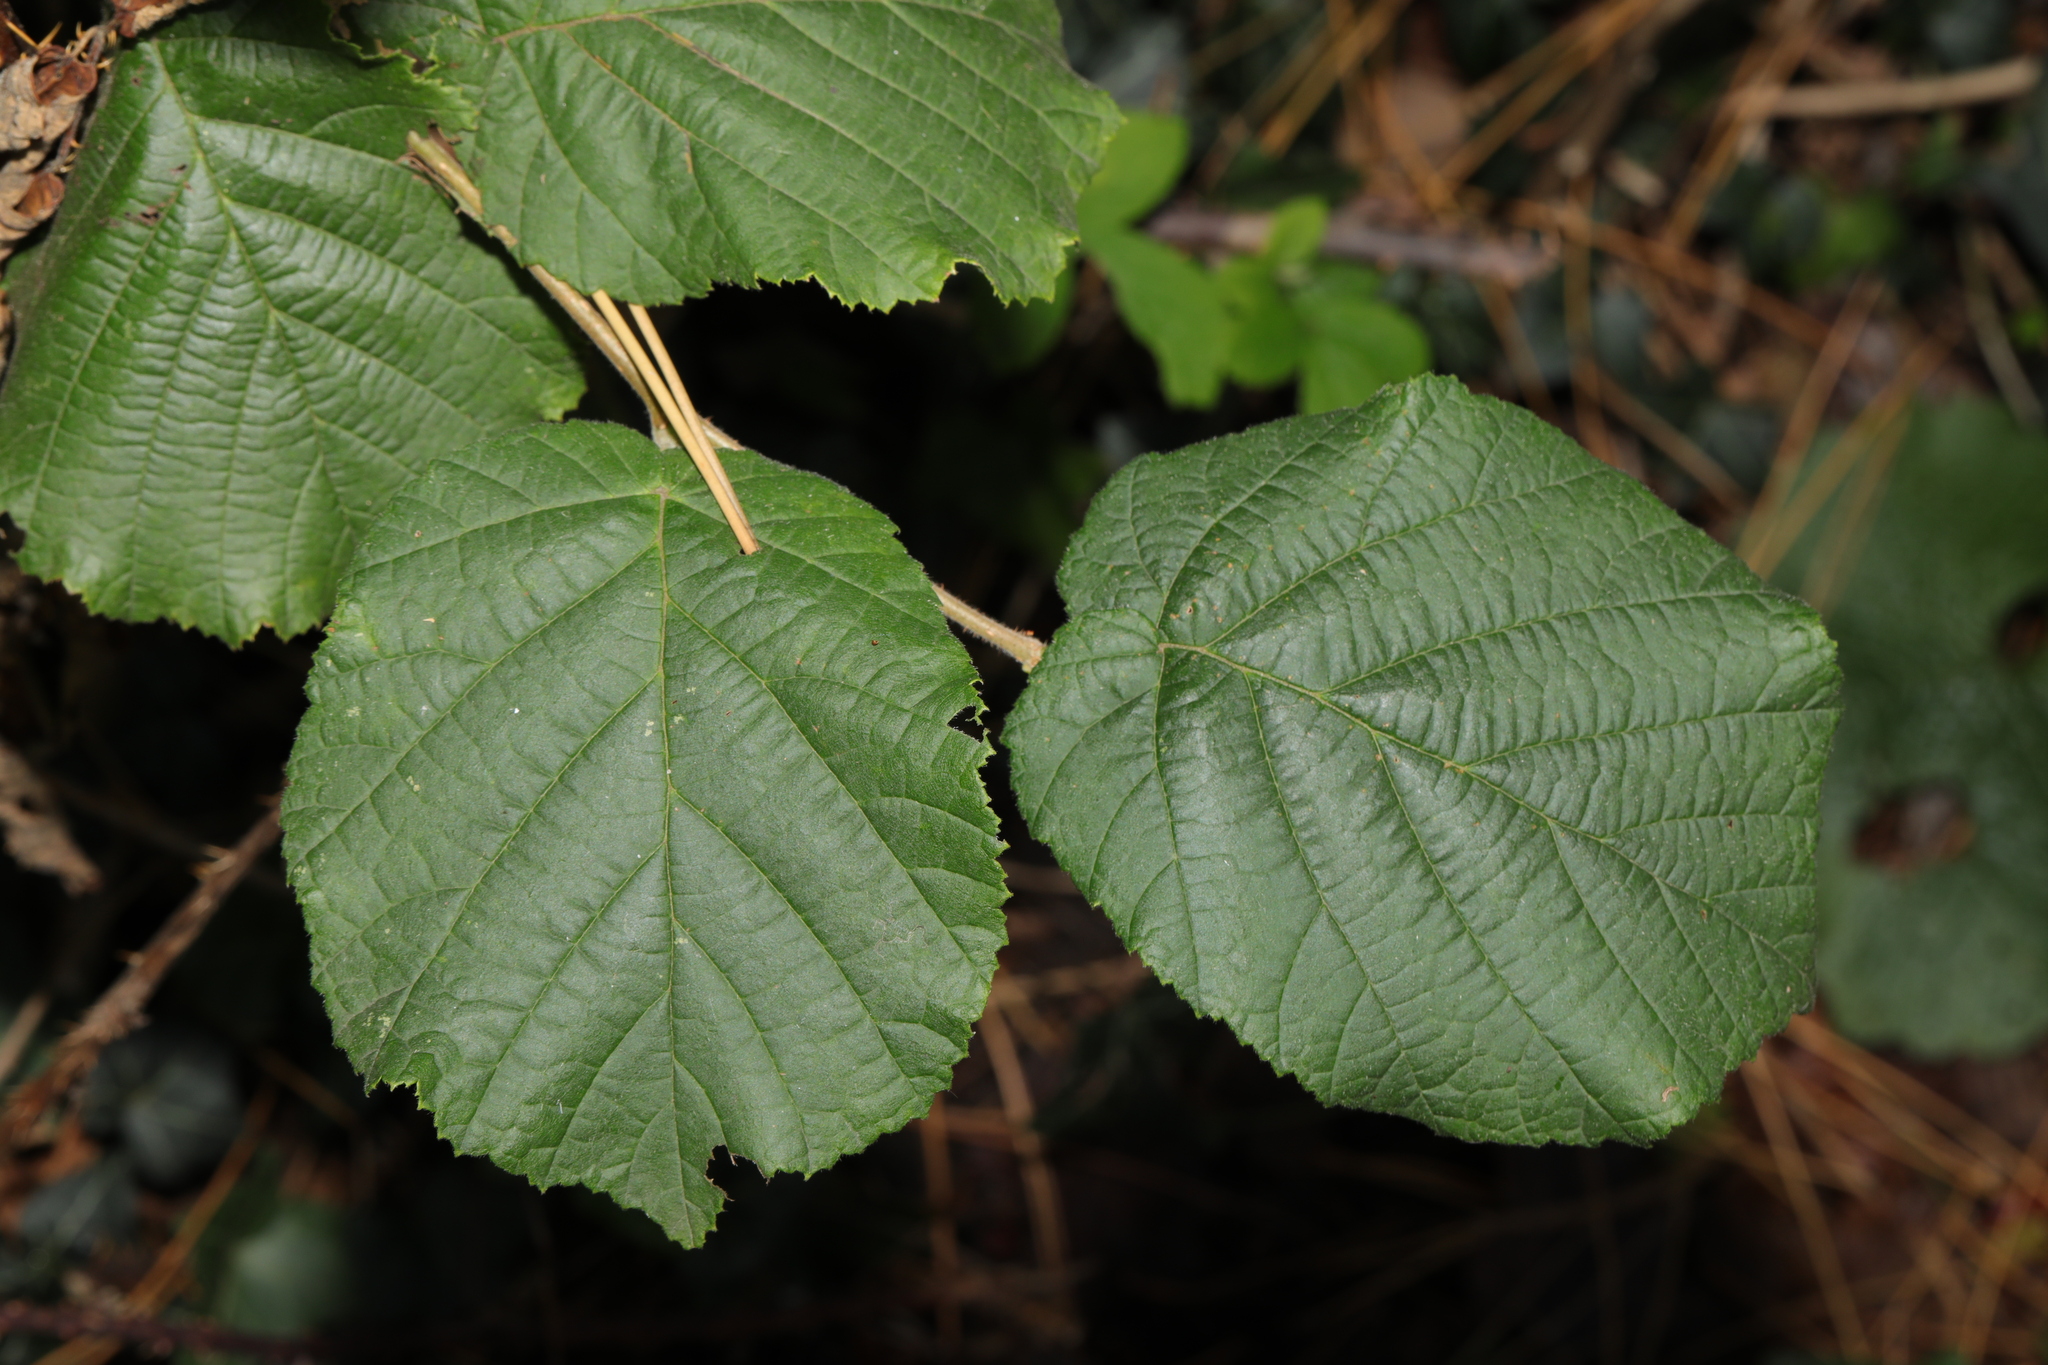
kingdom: Plantae
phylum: Tracheophyta
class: Magnoliopsida
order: Fagales
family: Betulaceae
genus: Corylus
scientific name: Corylus avellana
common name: European hazel
